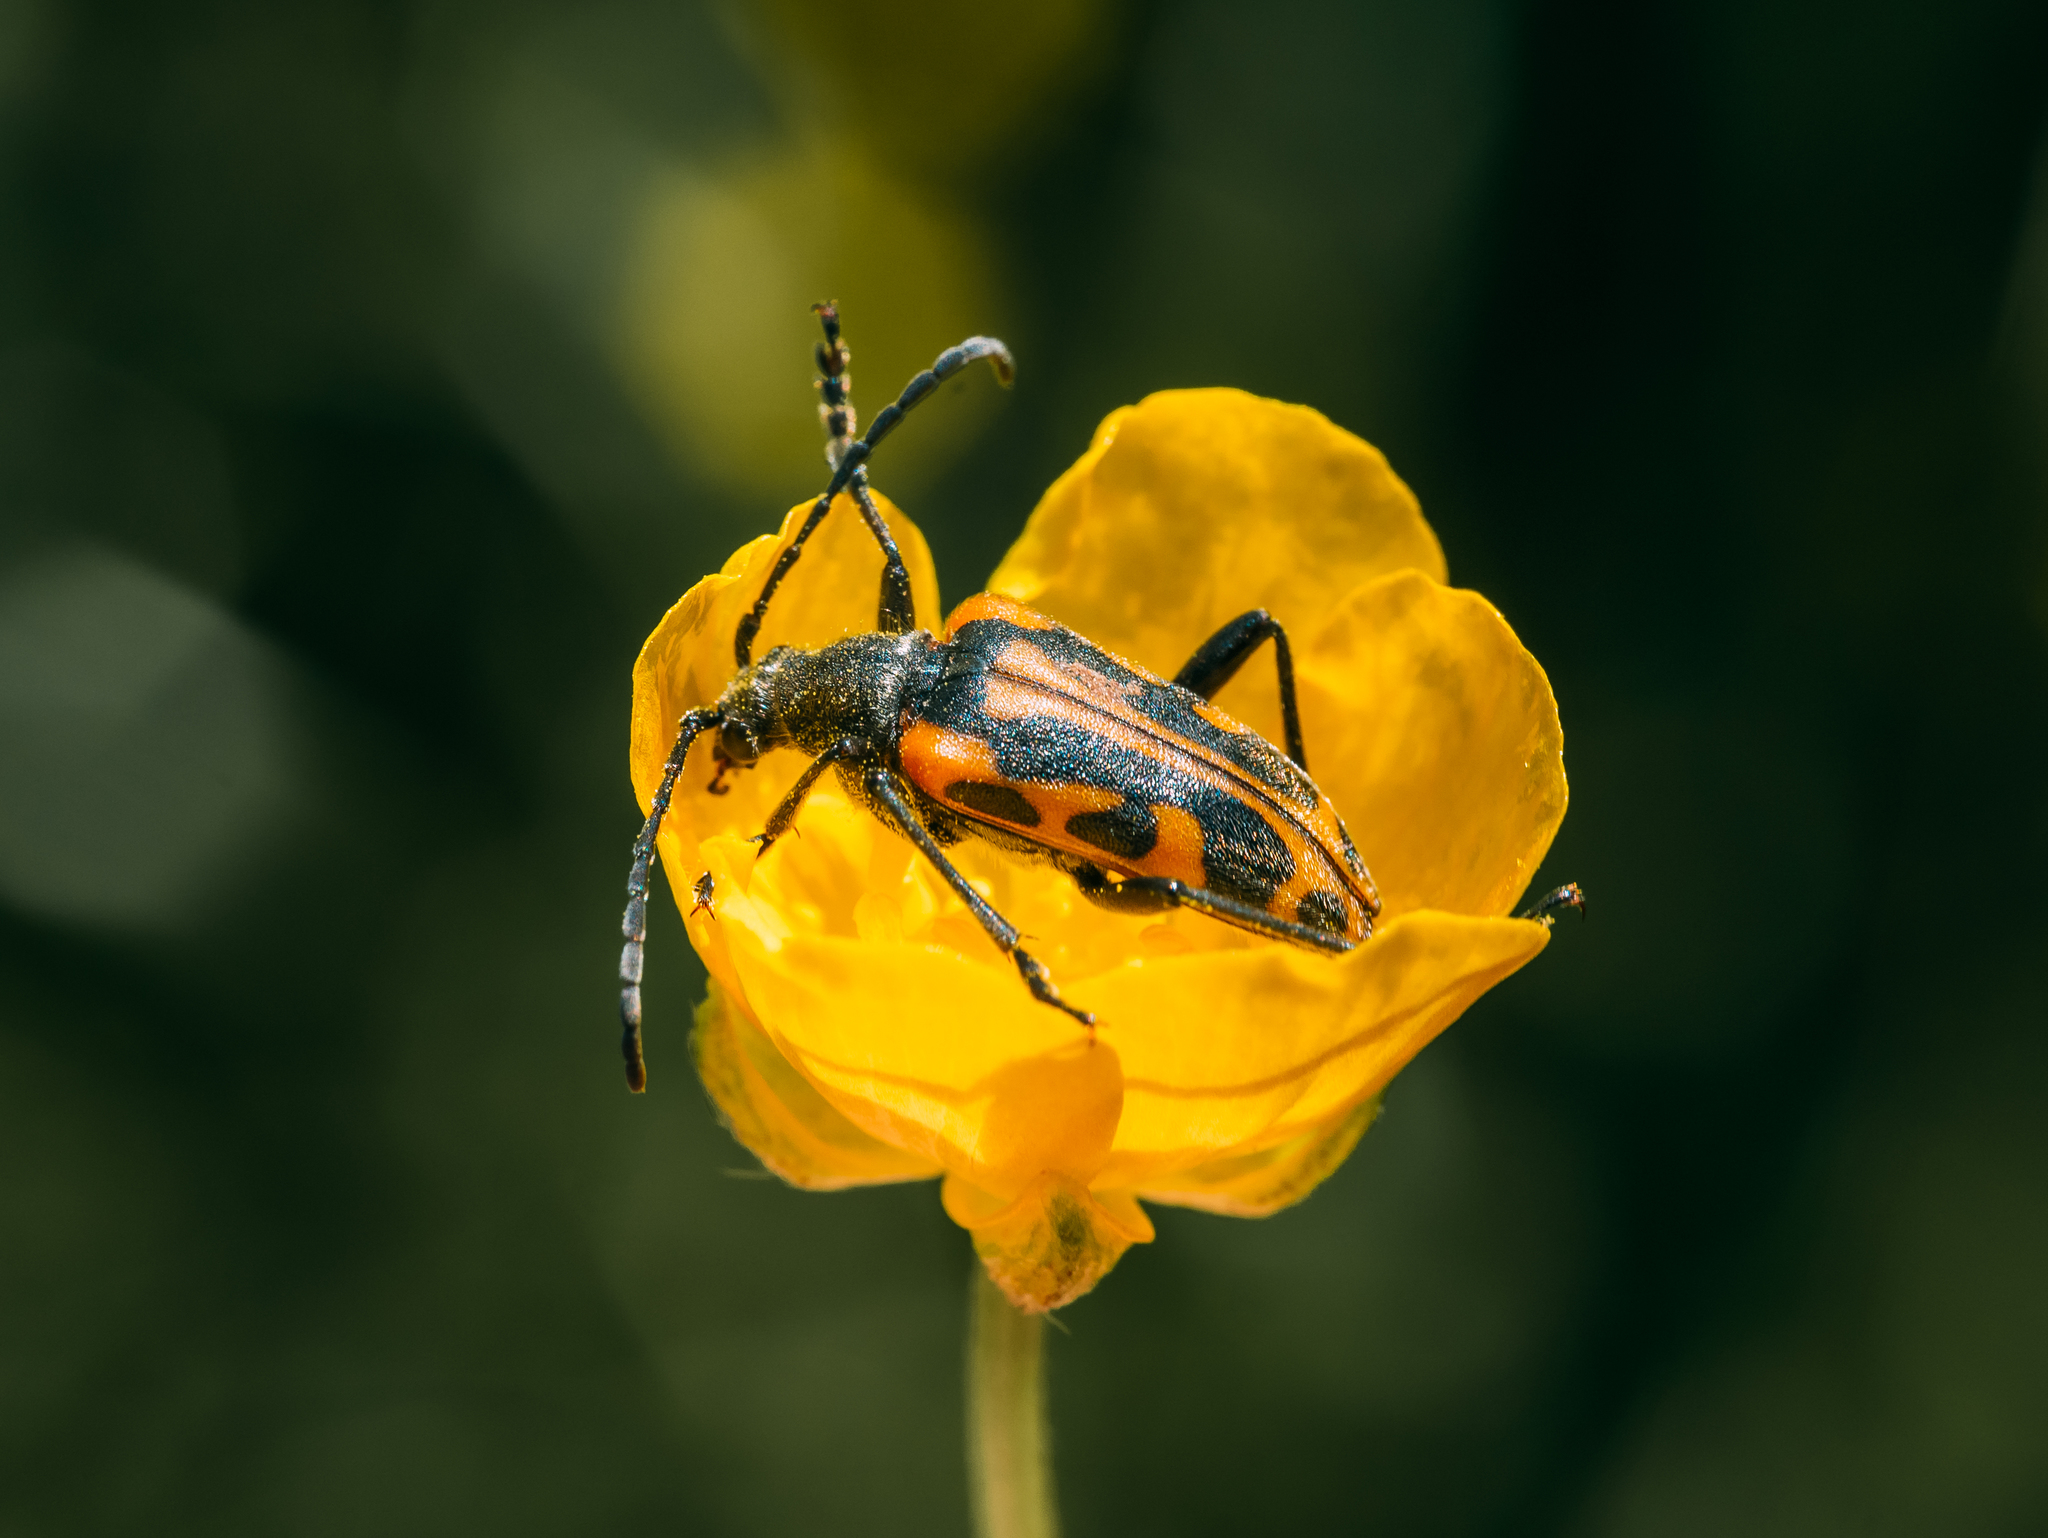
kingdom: Animalia
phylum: Arthropoda
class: Insecta
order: Coleoptera
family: Cerambycidae
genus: Brachyta
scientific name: Brachyta interrogationis
